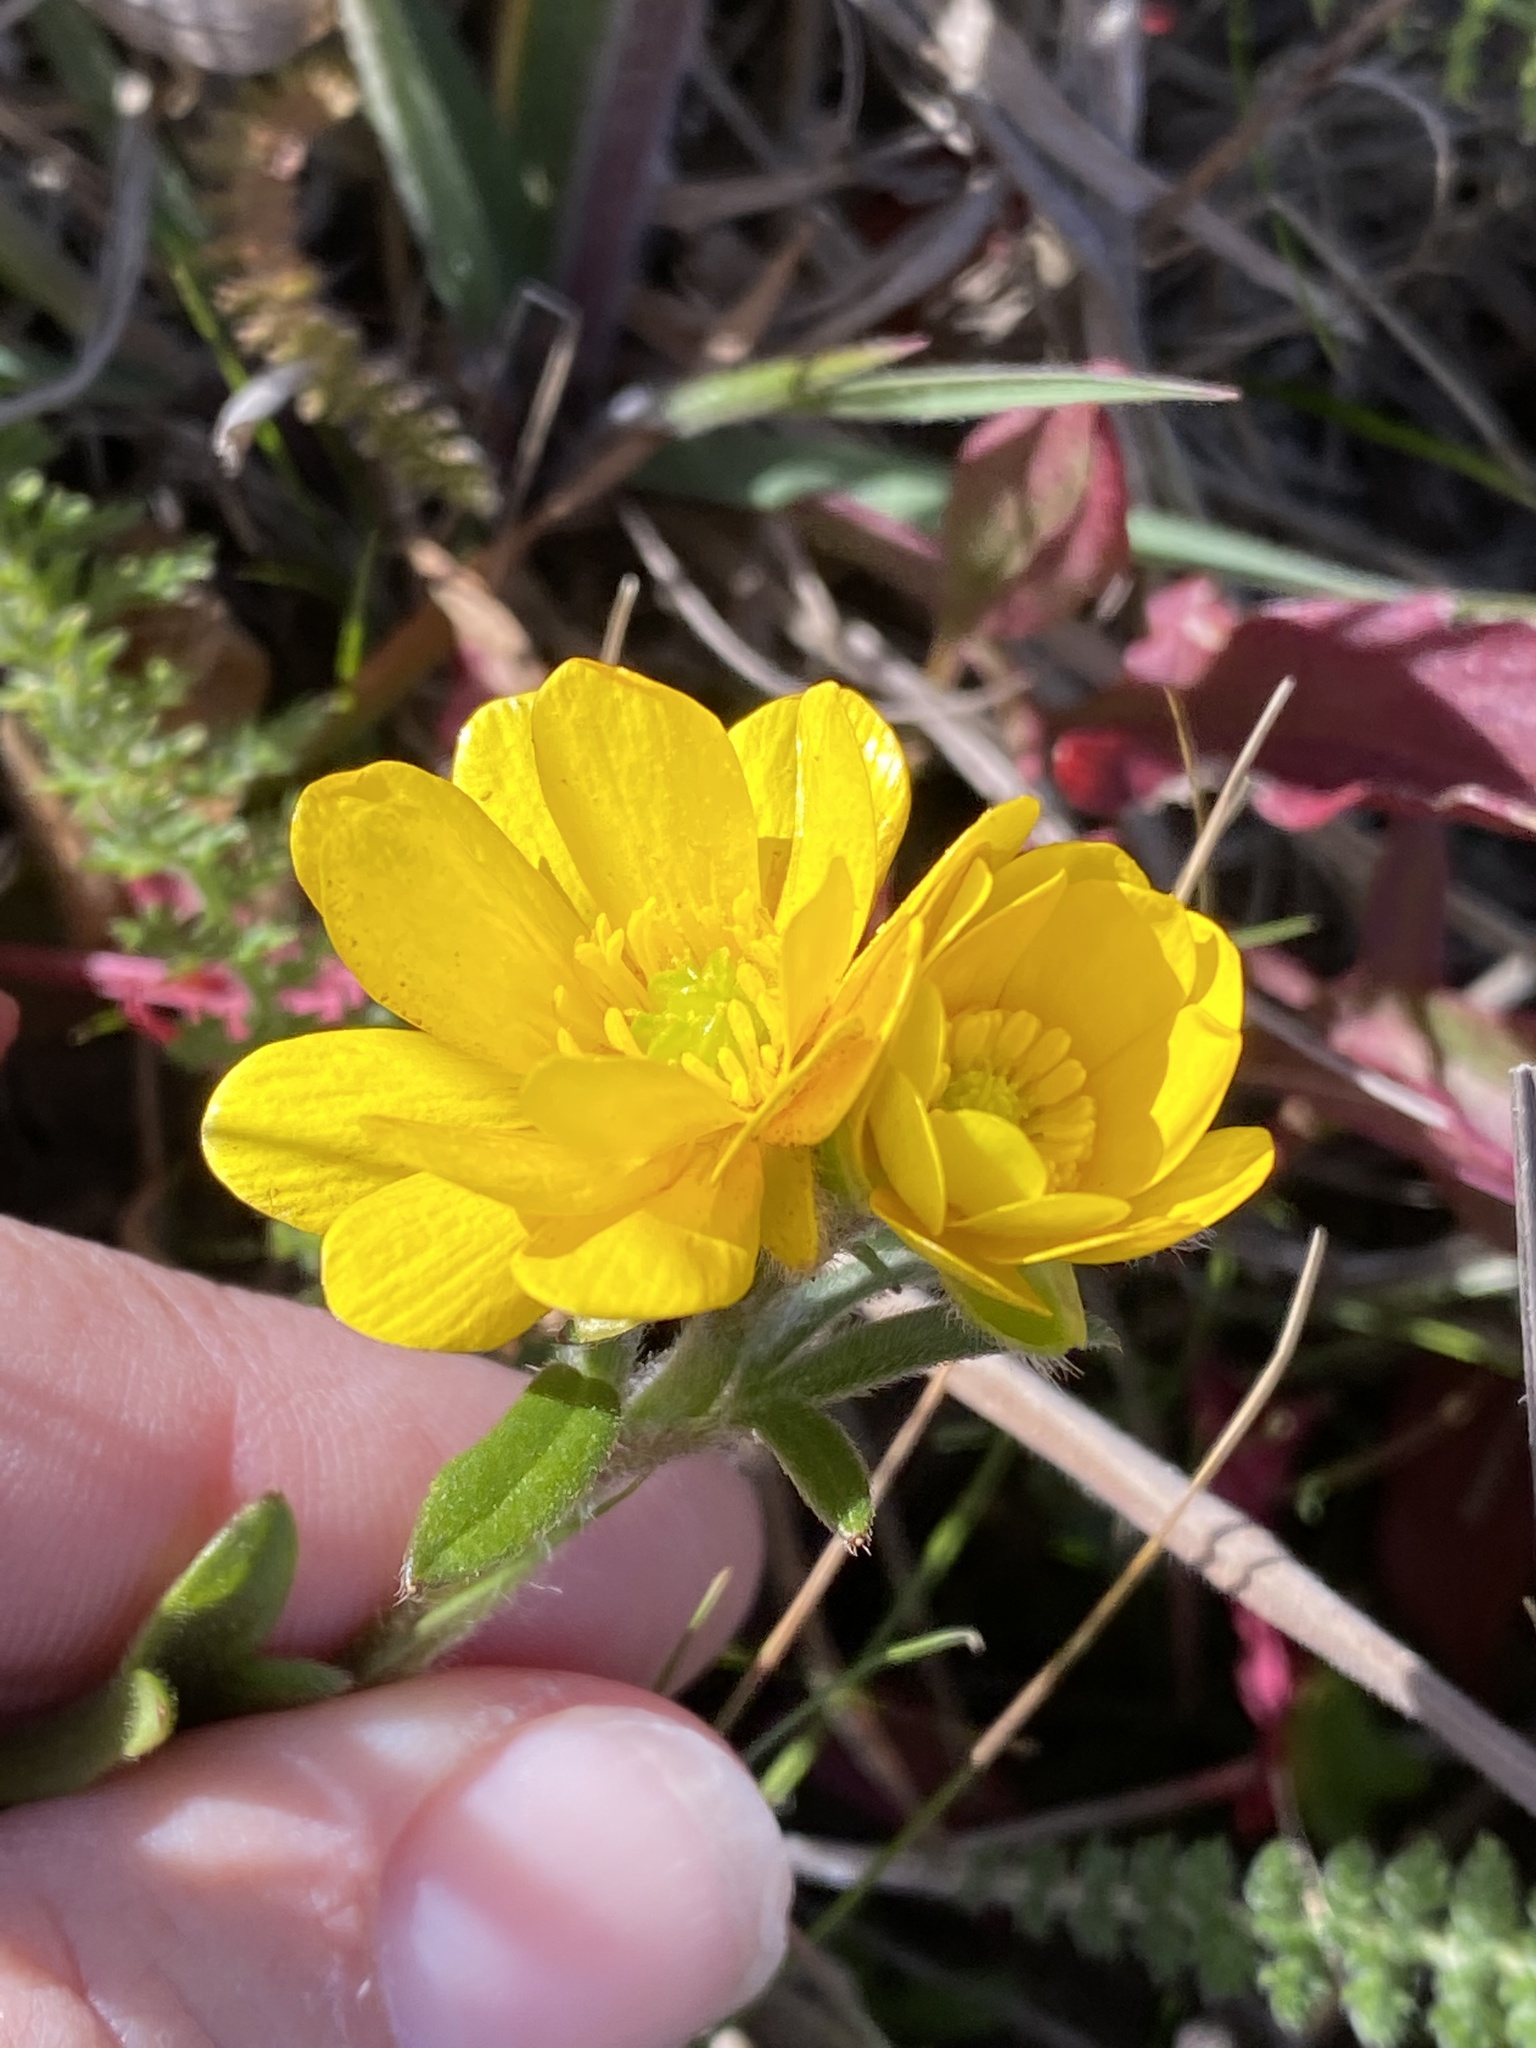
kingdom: Plantae
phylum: Tracheophyta
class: Magnoliopsida
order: Ranunculales
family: Ranunculaceae
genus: Ranunculus
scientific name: Ranunculus californicus
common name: California buttercup
